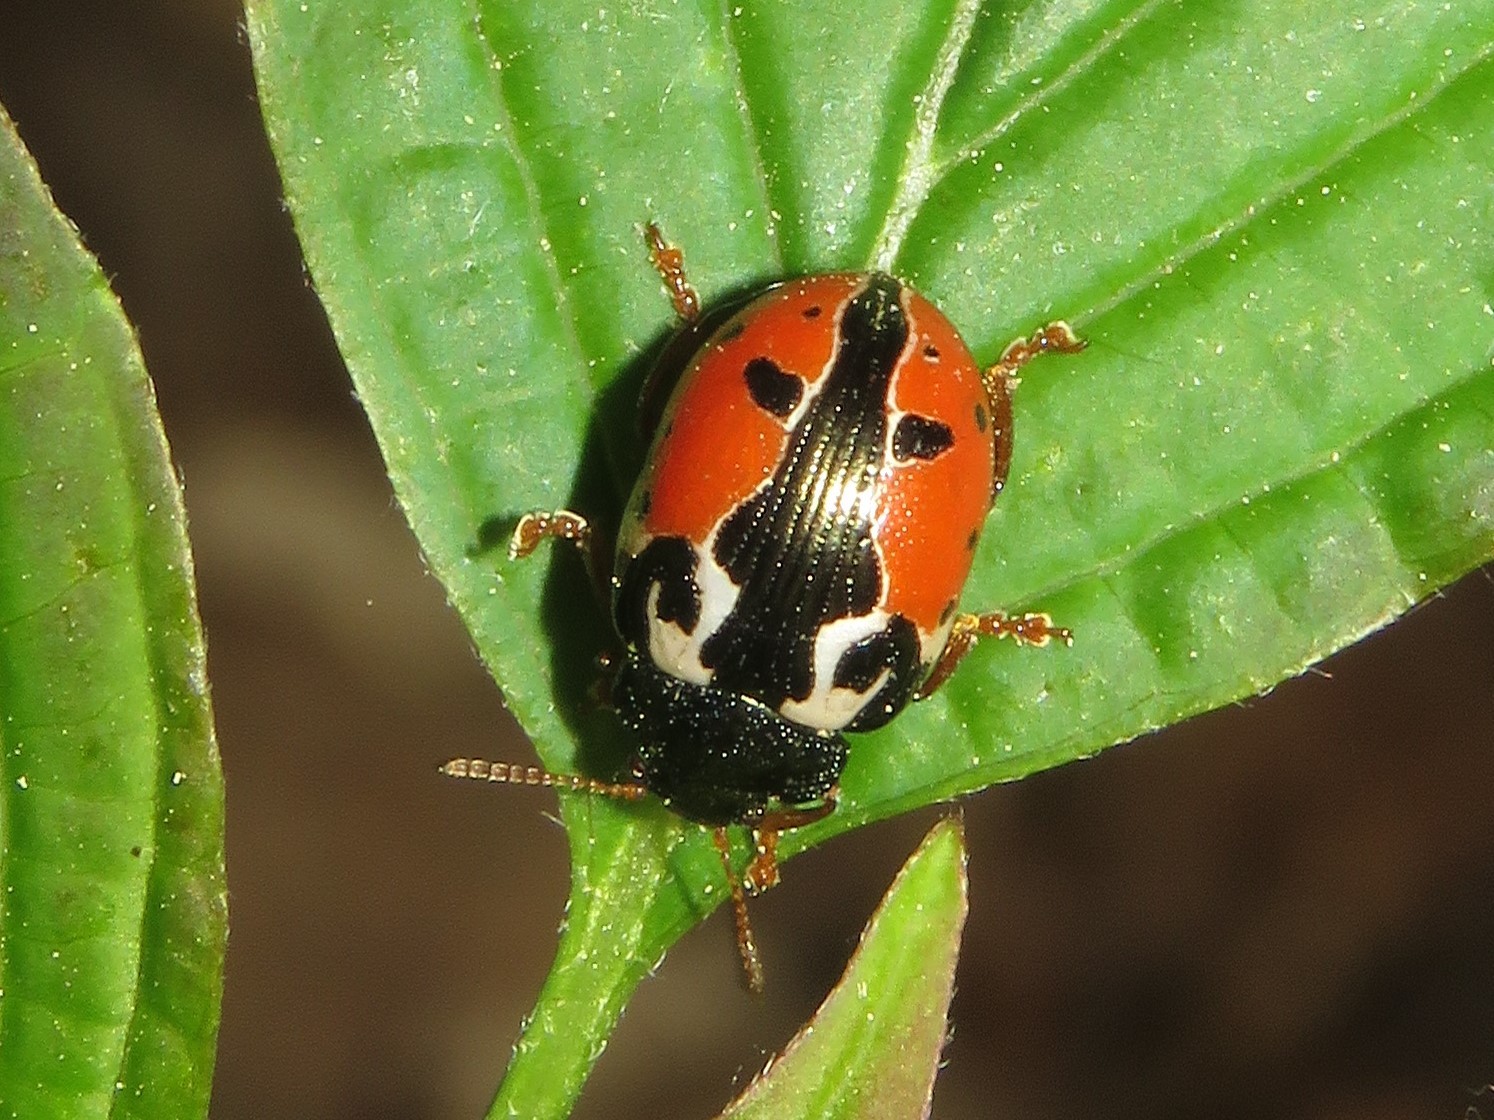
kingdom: Animalia
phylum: Arthropoda
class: Insecta
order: Coleoptera
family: Chrysomelidae
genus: Calligrapha
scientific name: Calligrapha rowena
